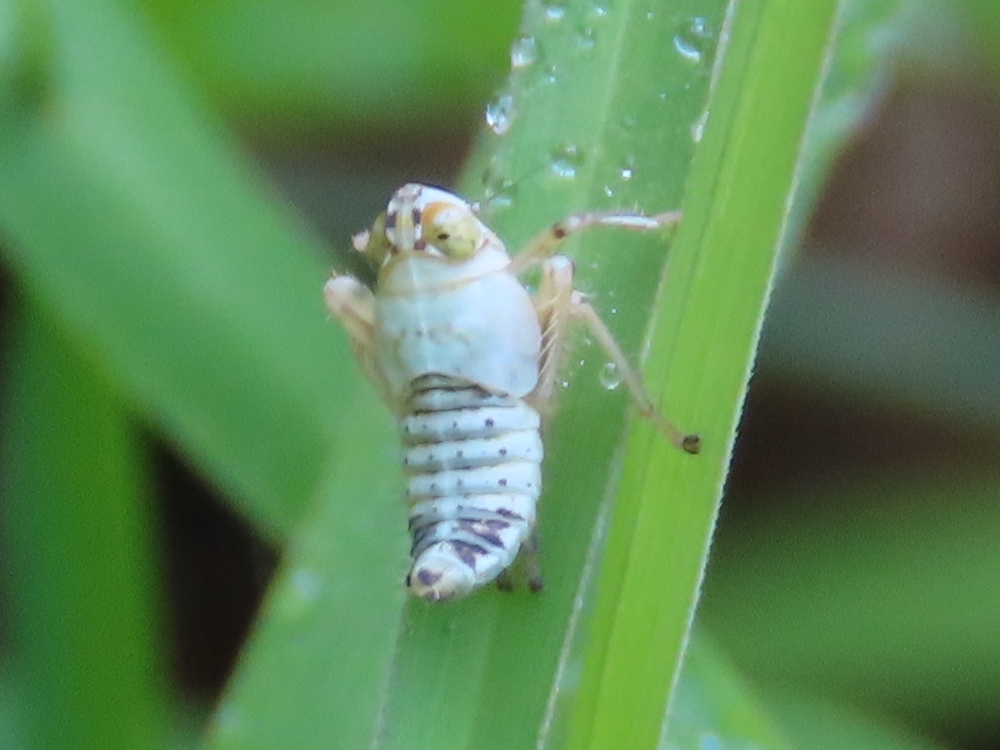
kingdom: Animalia
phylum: Arthropoda
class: Insecta
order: Hemiptera
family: Cicadellidae
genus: Jikradia
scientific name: Jikradia olitoria
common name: Coppery leafhopper
